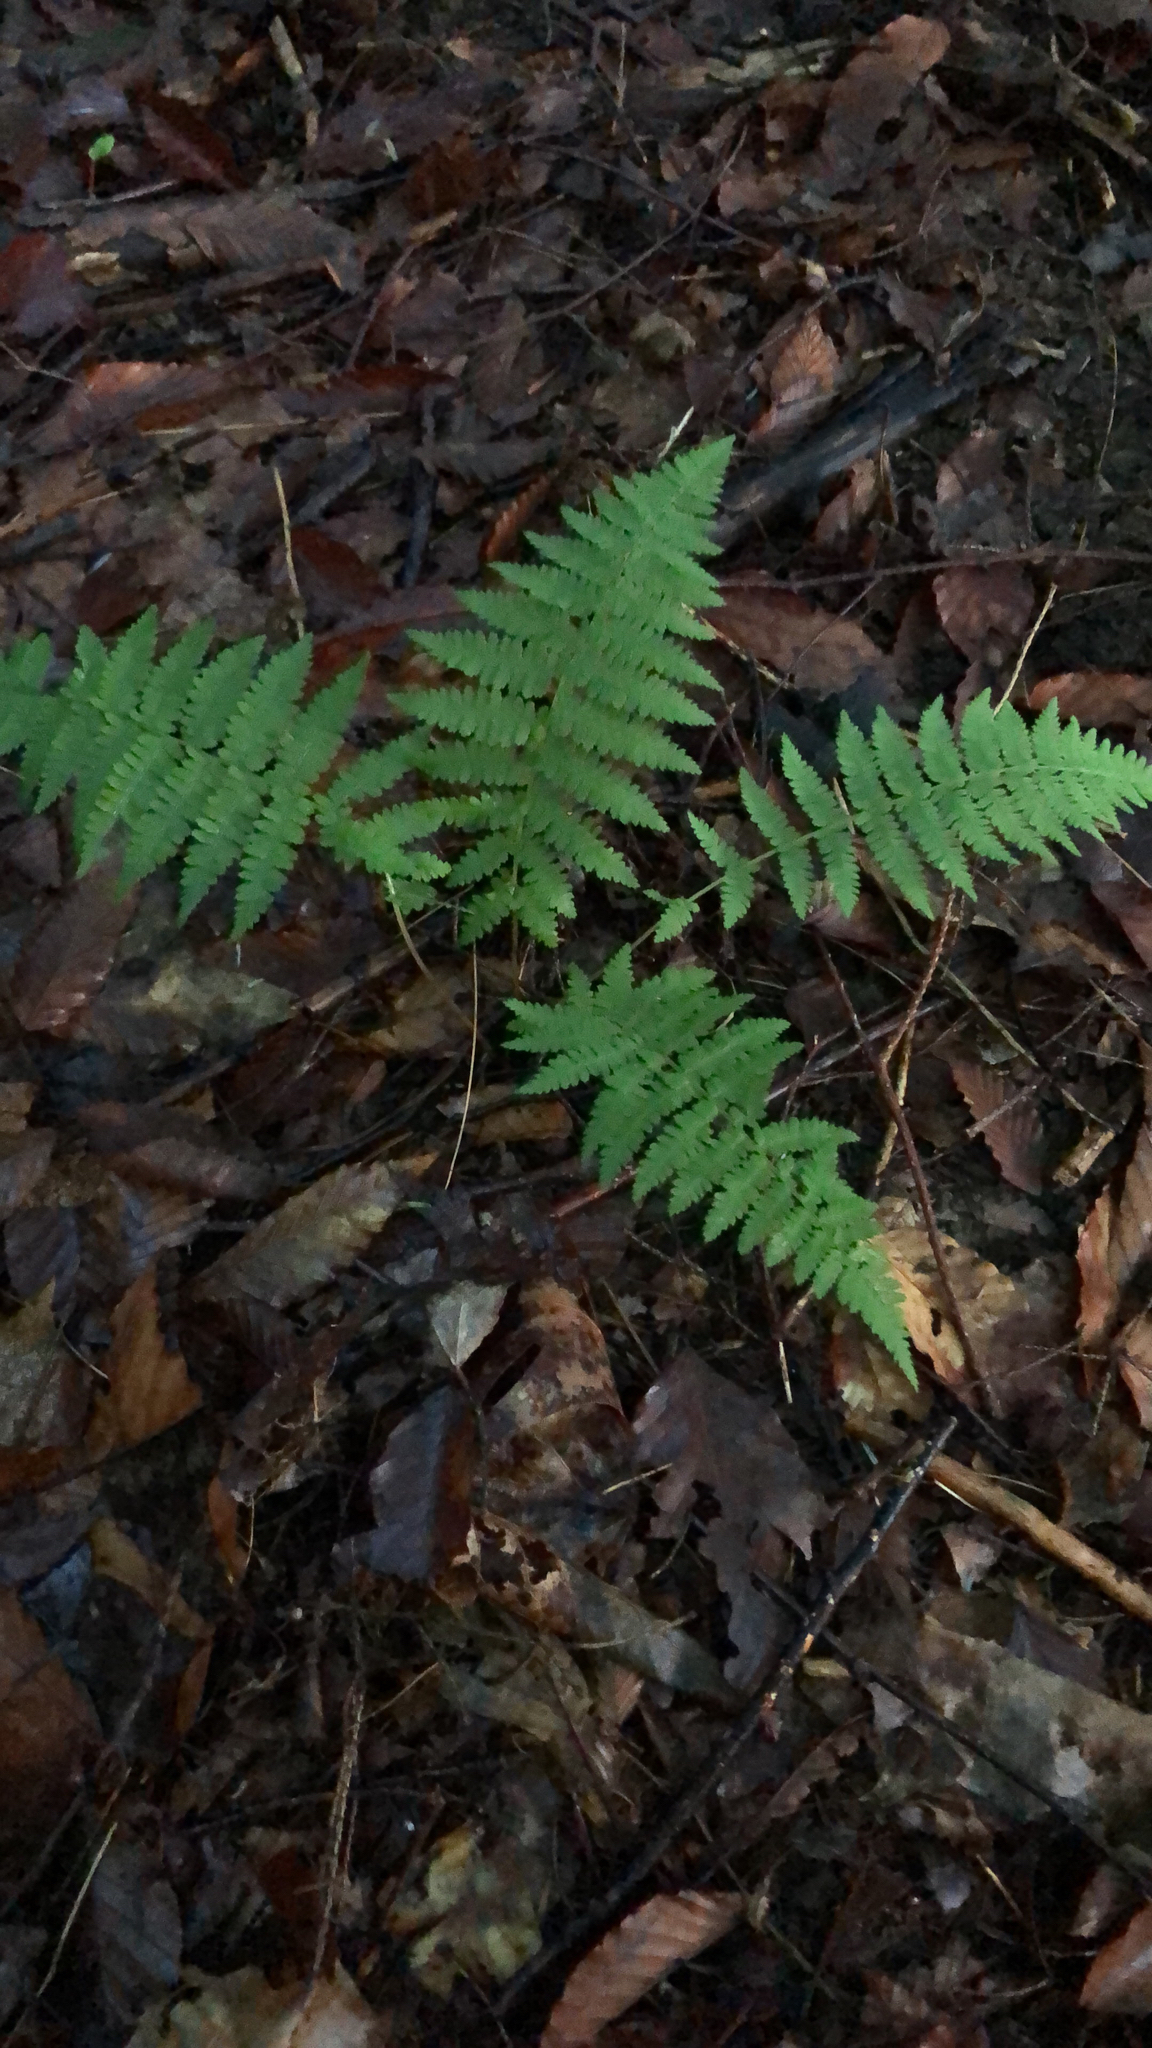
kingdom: Plantae
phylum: Tracheophyta
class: Polypodiopsida
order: Polypodiales
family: Thelypteridaceae
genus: Amauropelta
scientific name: Amauropelta noveboracensis
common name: New york fern
